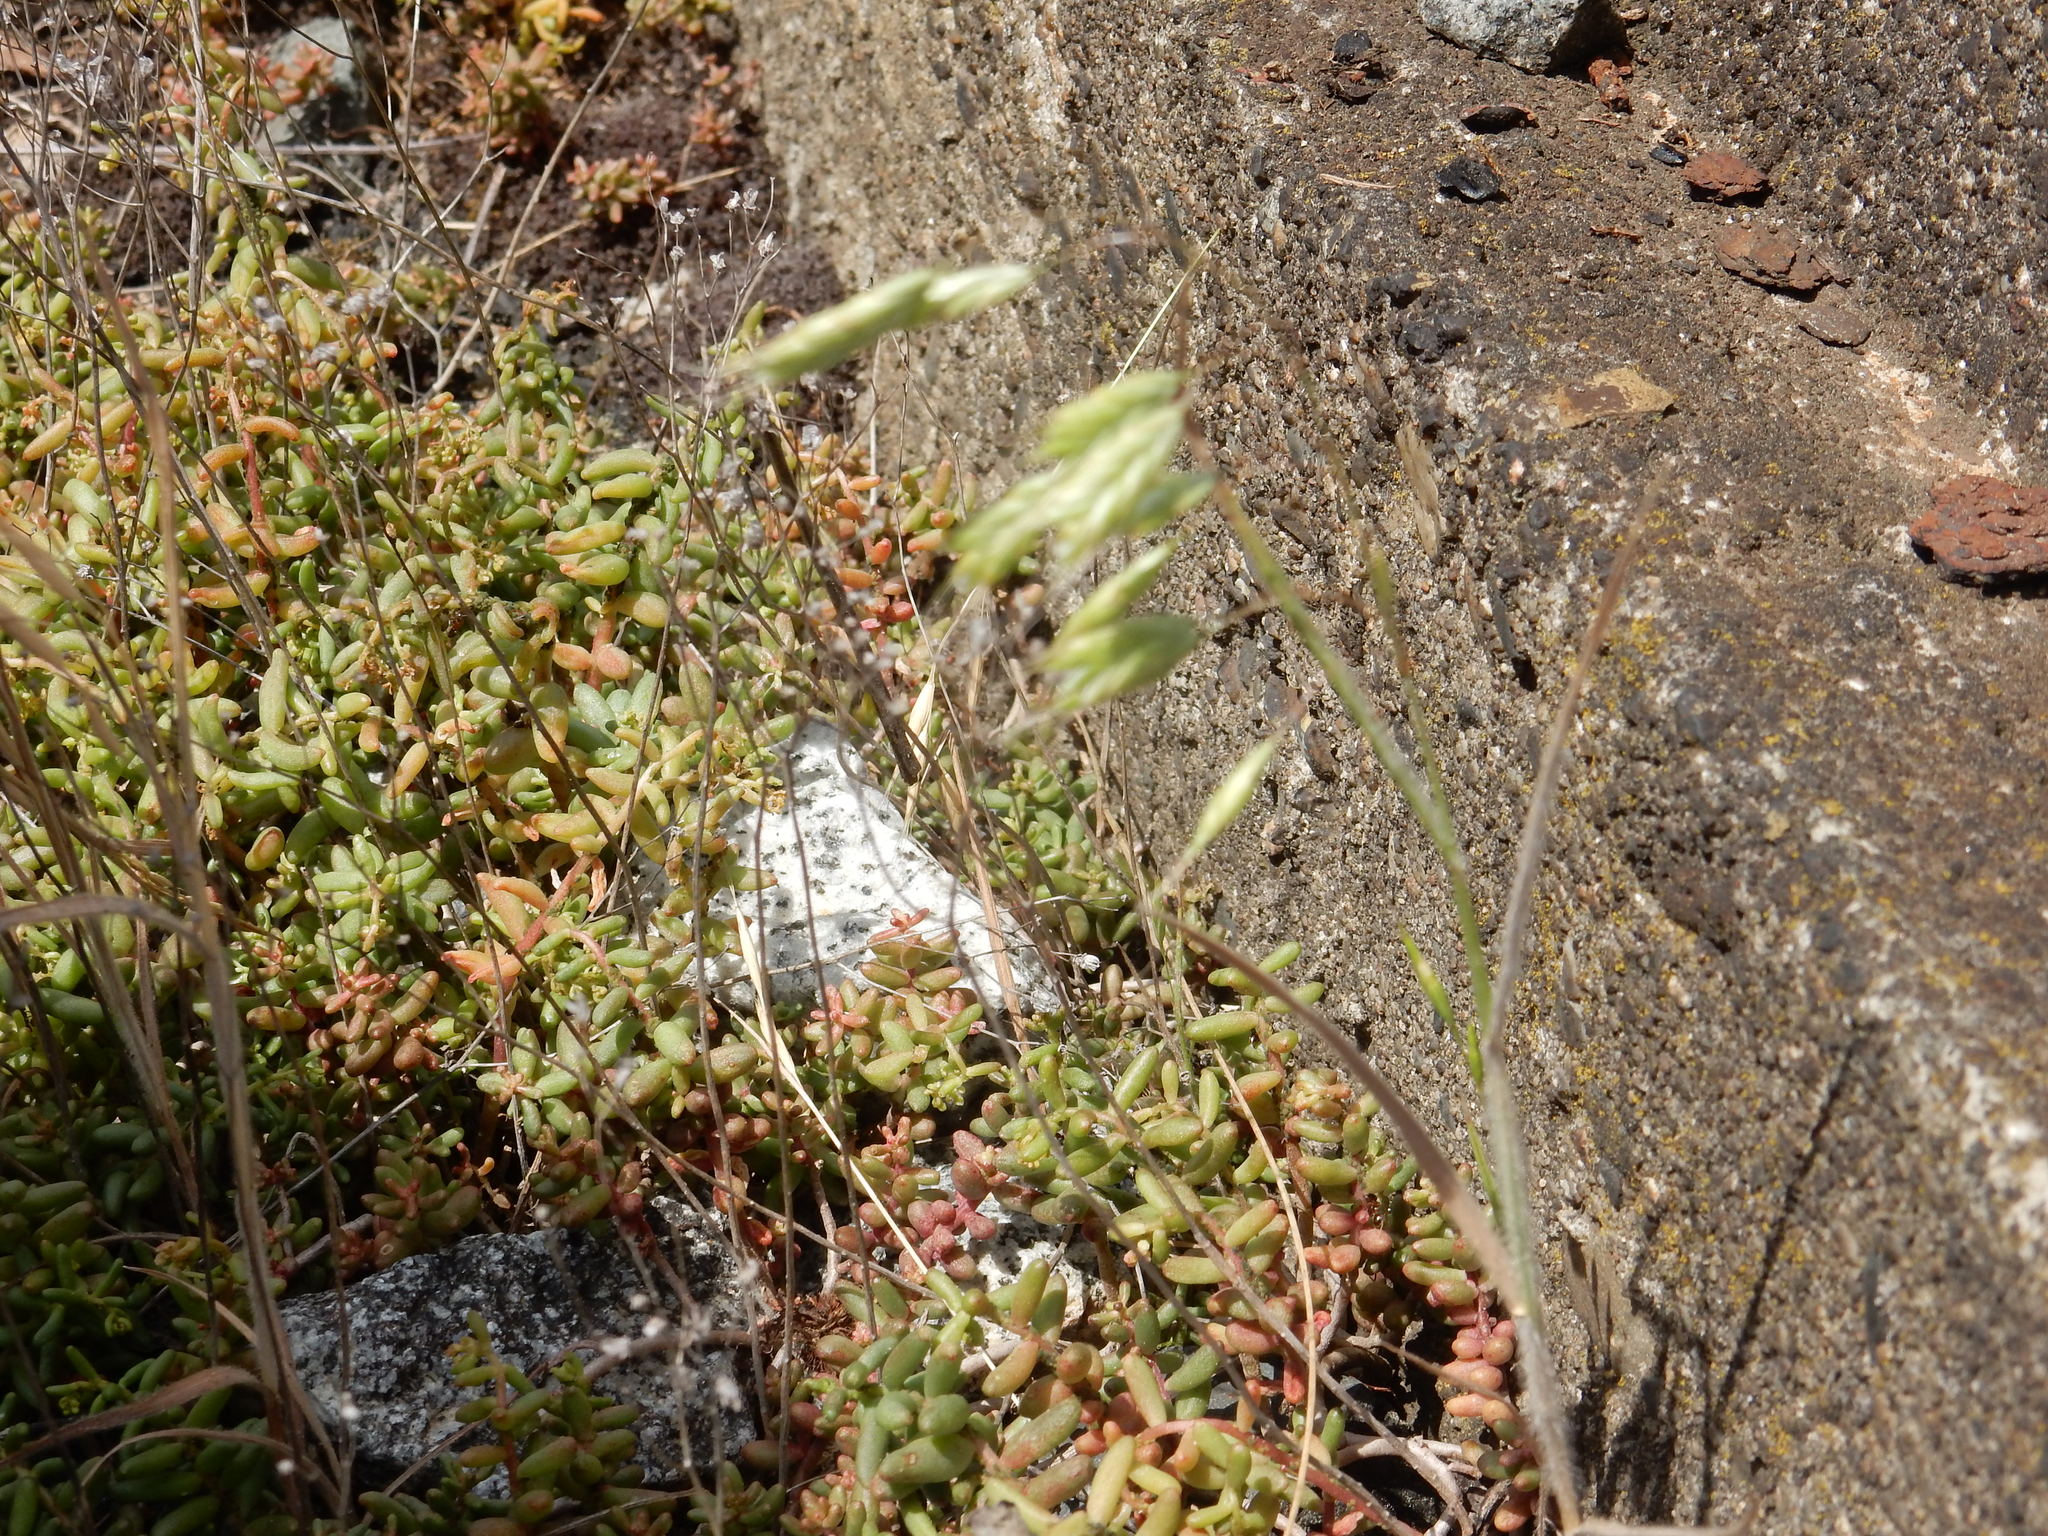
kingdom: Plantae
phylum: Tracheophyta
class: Liliopsida
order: Poales
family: Poaceae
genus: Bromus
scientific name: Bromus squarrosus
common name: Corn brome
